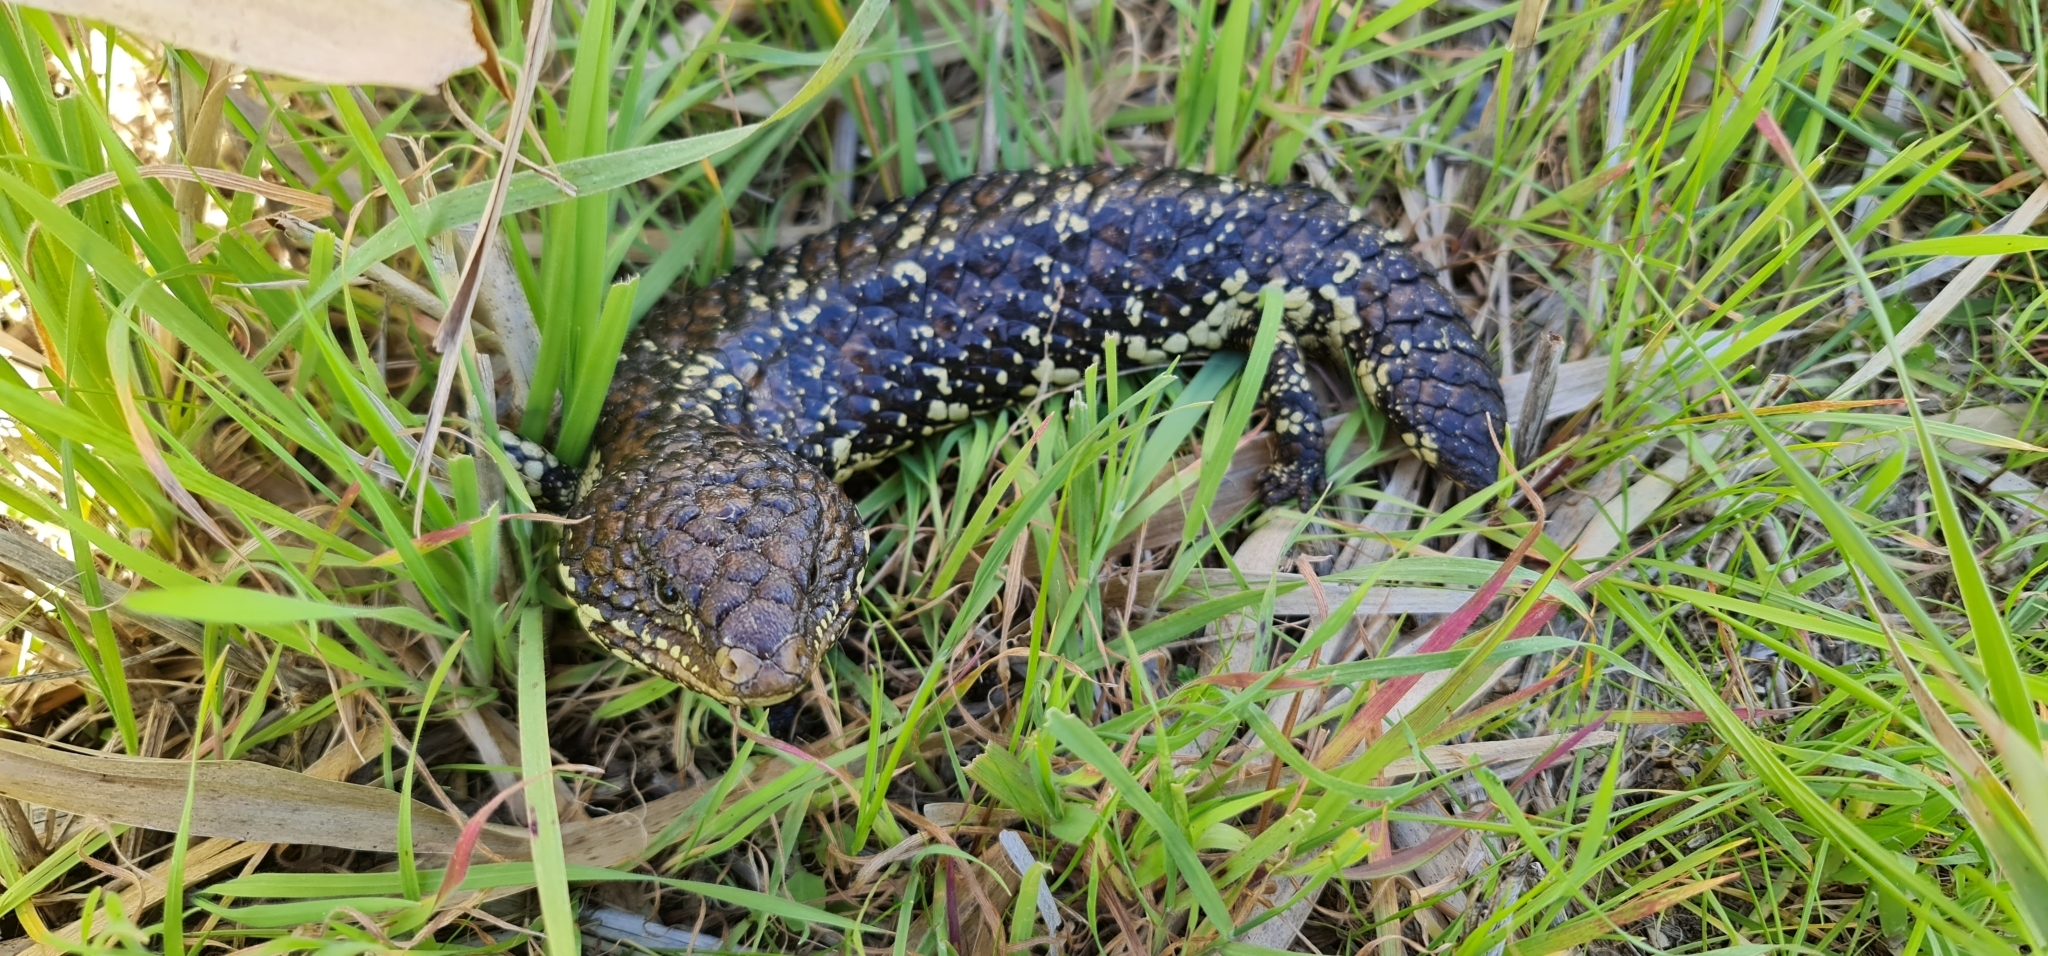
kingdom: Animalia
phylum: Chordata
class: Squamata
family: Scincidae
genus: Tiliqua
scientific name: Tiliqua rugosa
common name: Pinecone lizard
